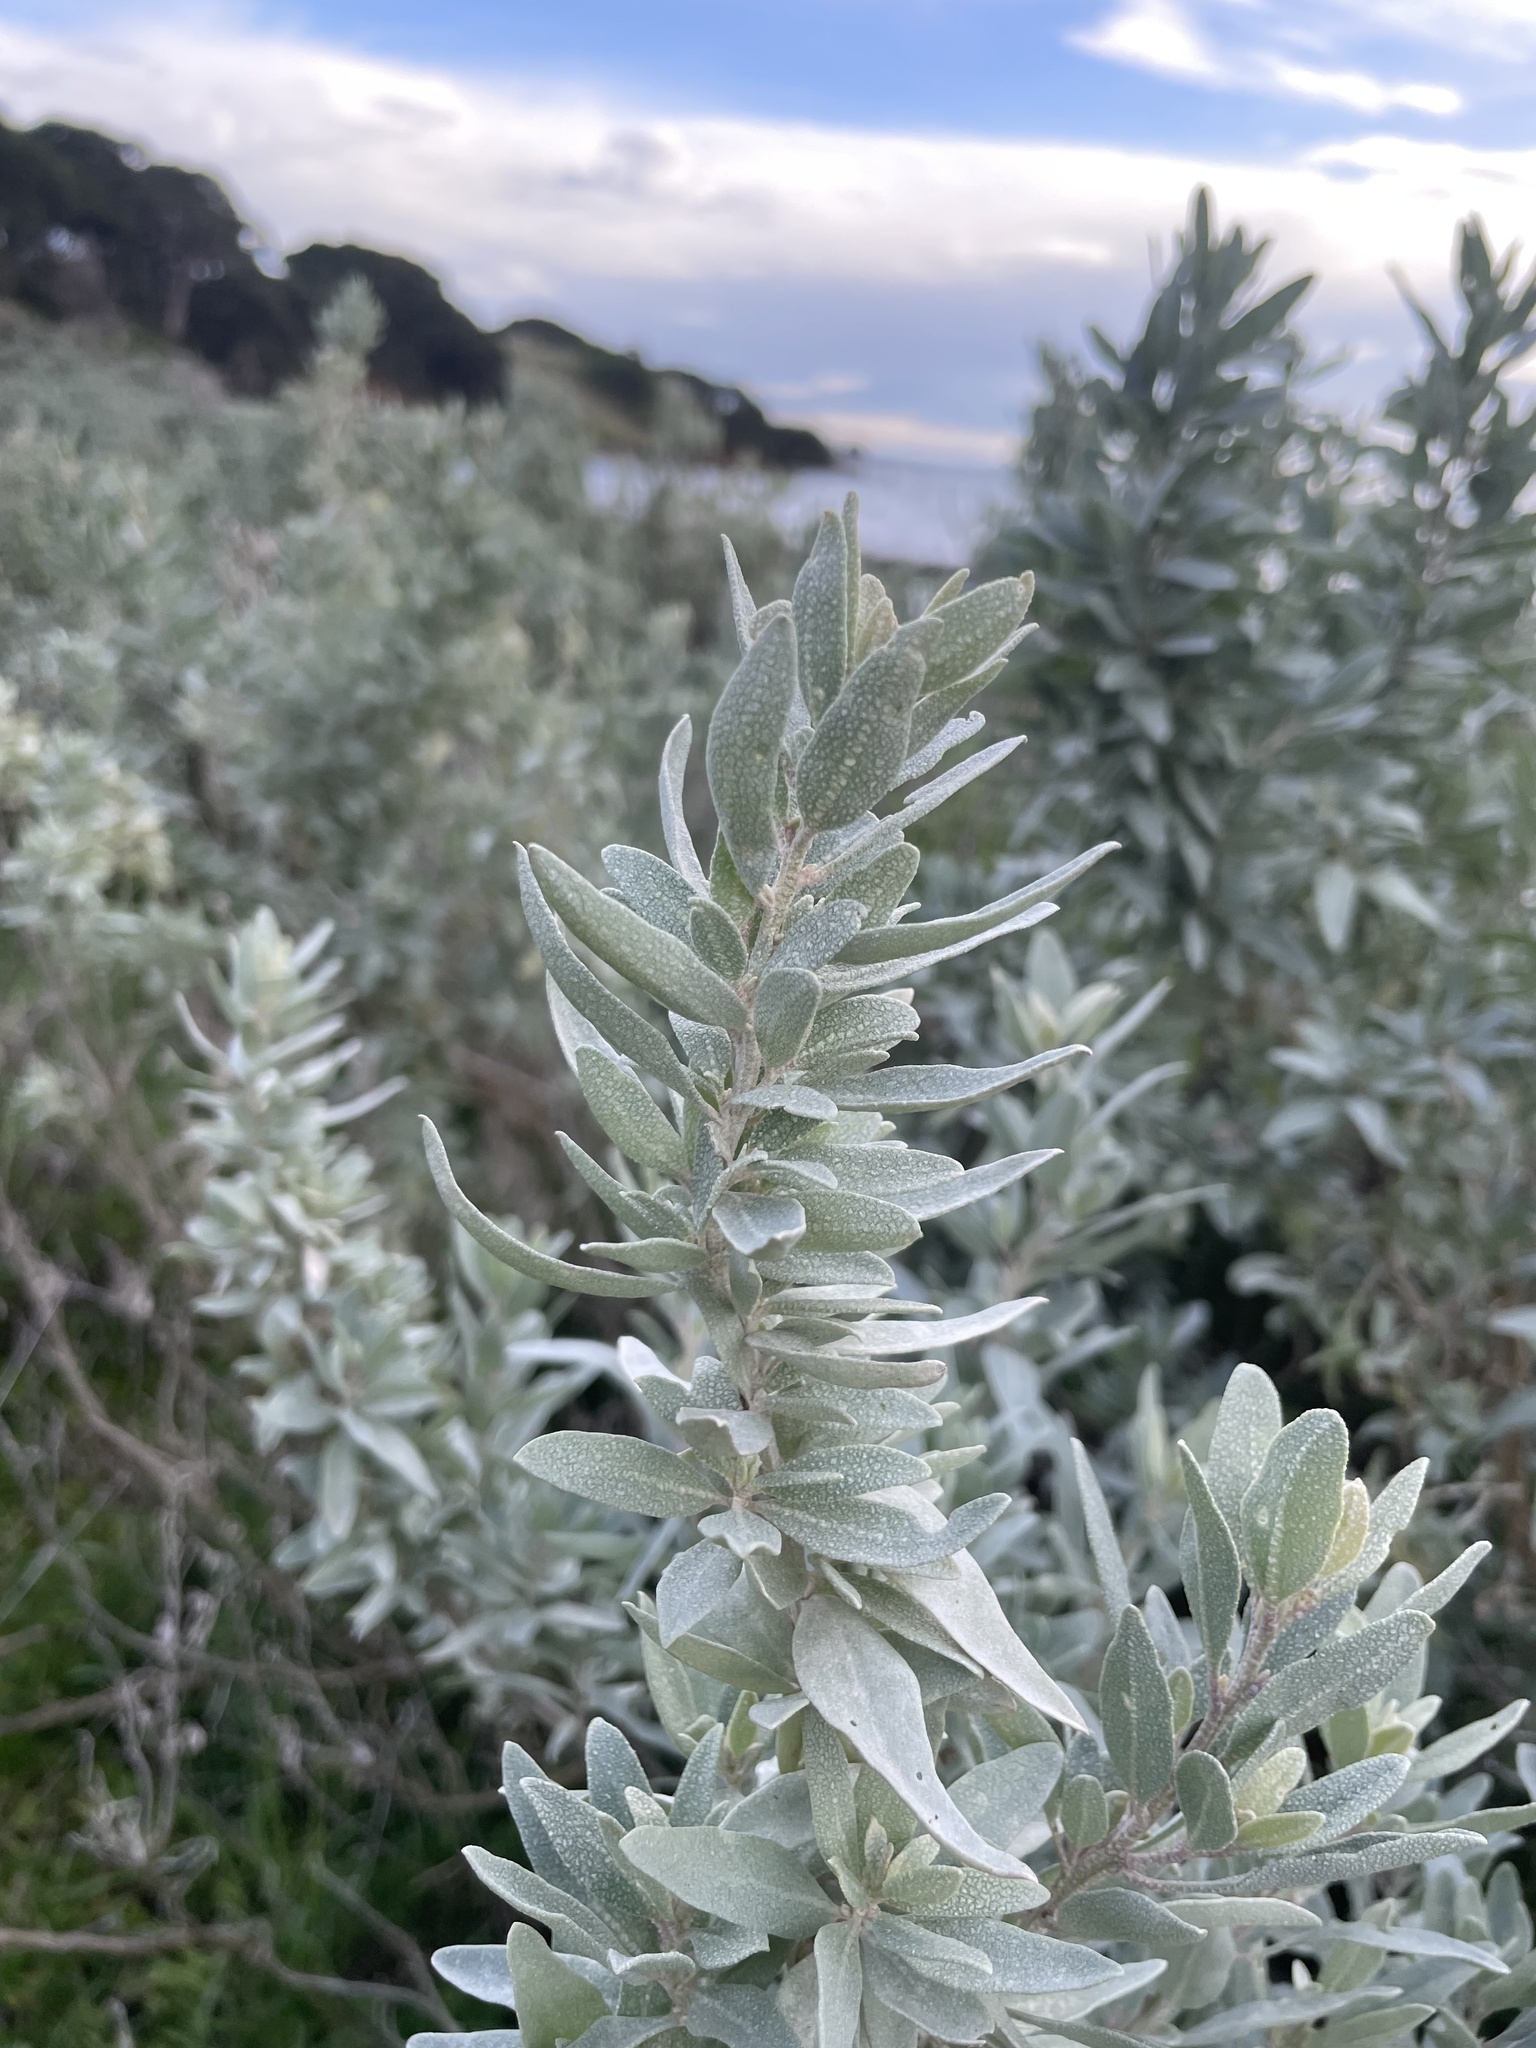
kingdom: Plantae
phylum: Tracheophyta
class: Magnoliopsida
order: Caryophyllales
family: Amaranthaceae
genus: Atriplex
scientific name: Atriplex cinerea
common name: Grey saltbush
